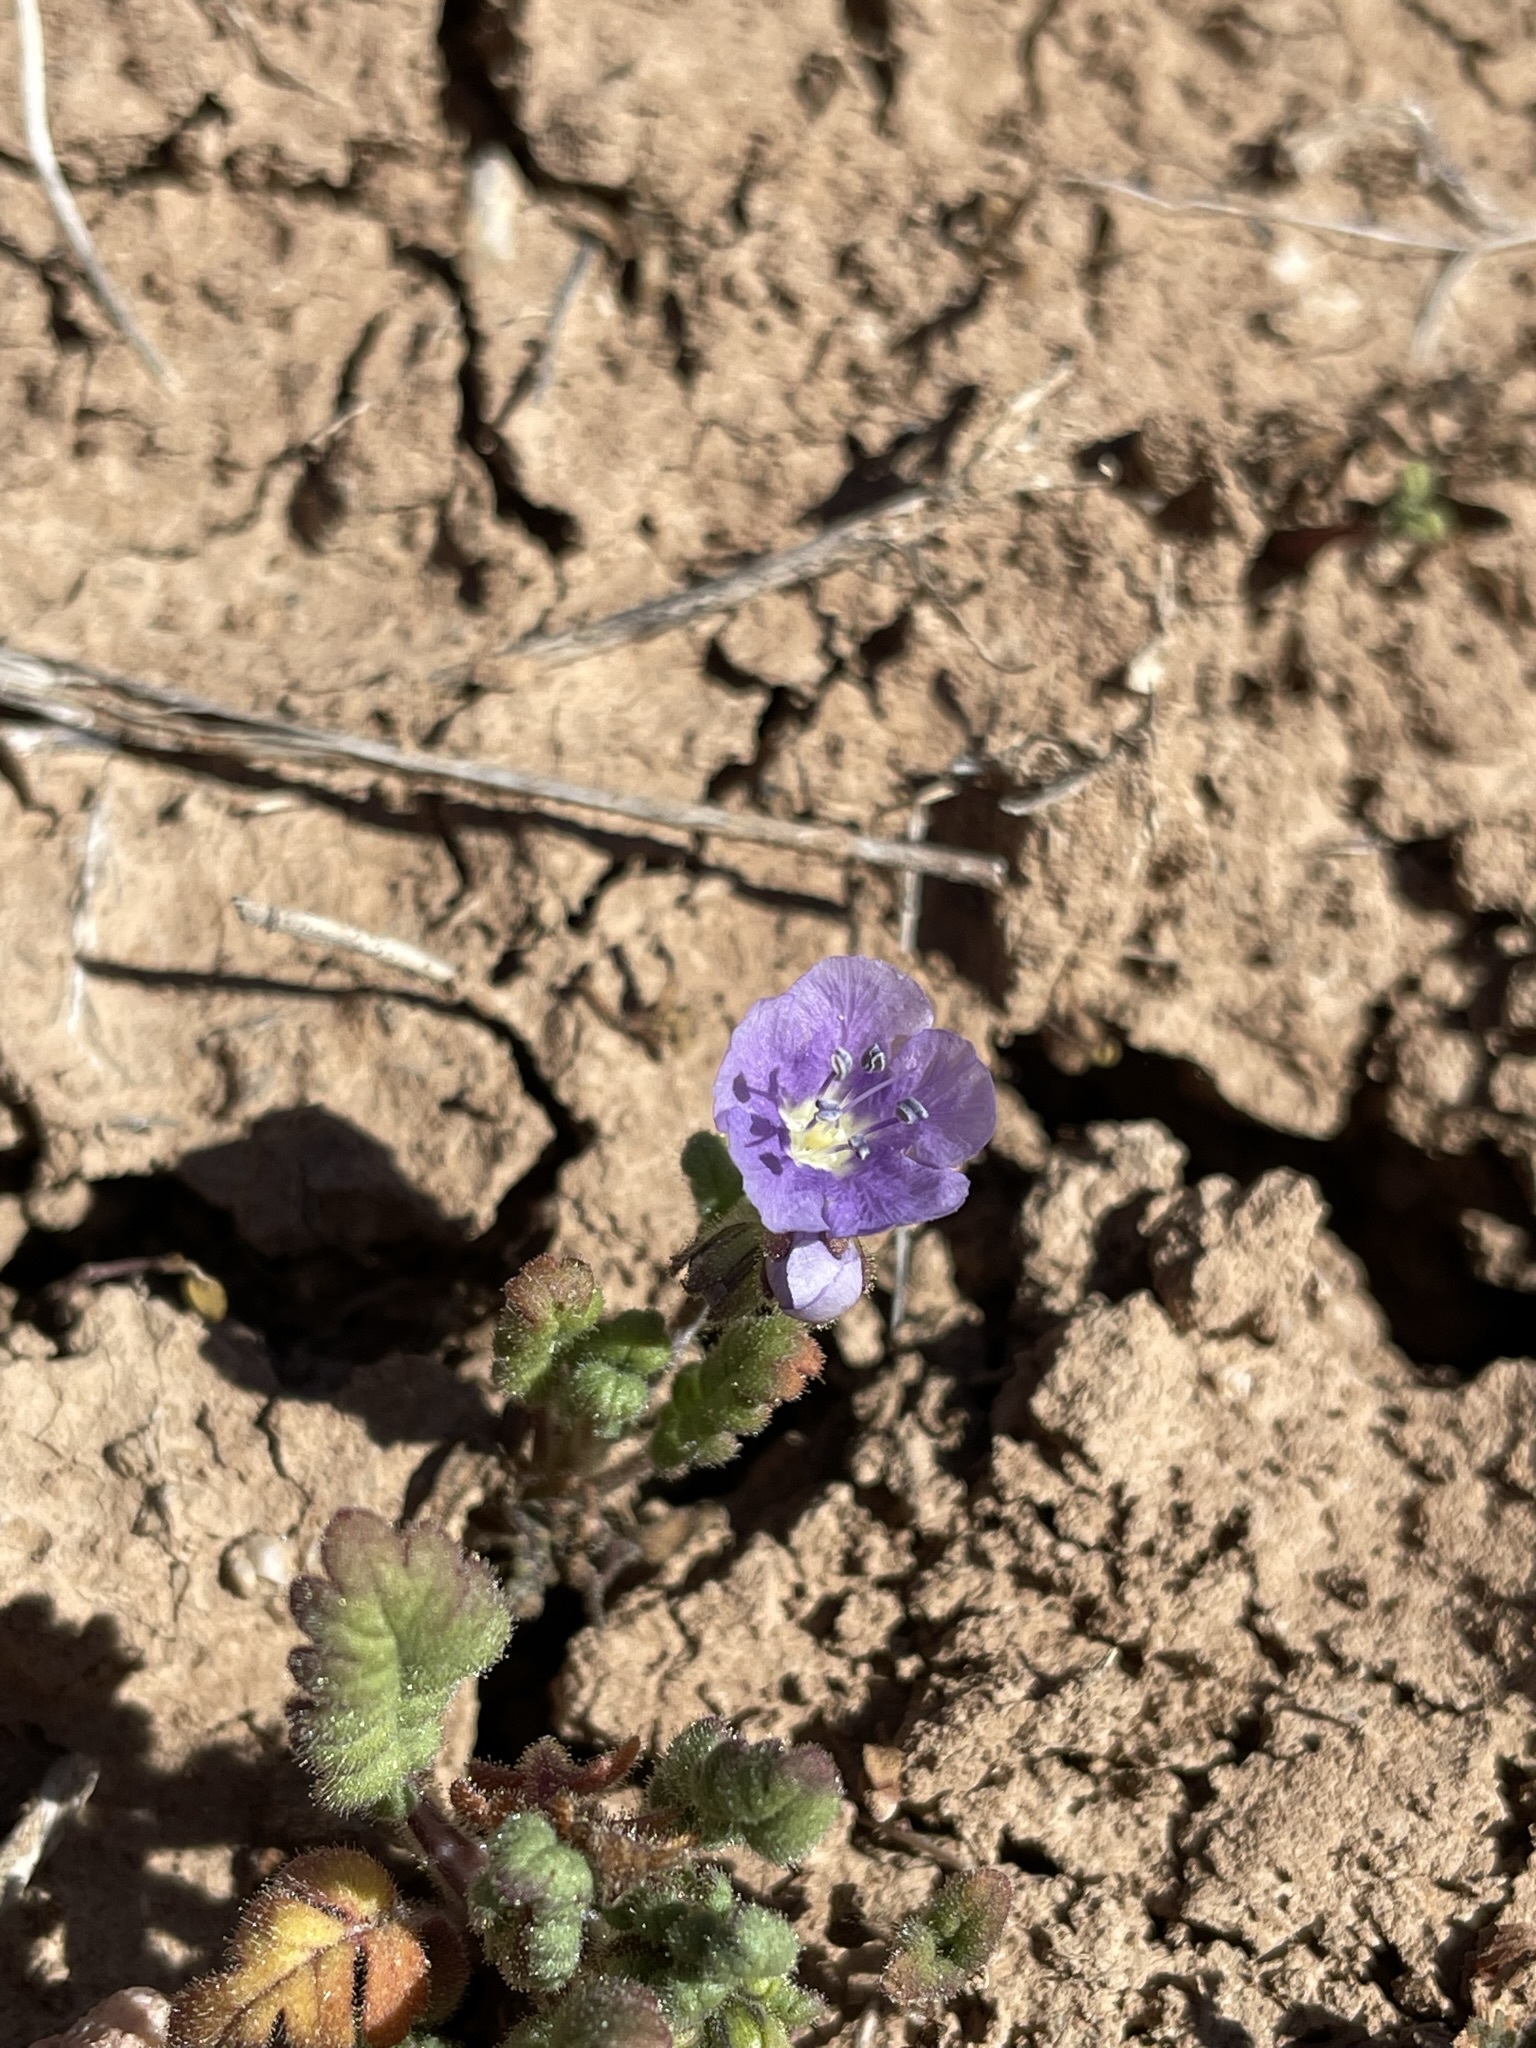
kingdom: Plantae
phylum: Tracheophyta
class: Magnoliopsida
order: Boraginales
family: Hydrophyllaceae
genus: Phacelia
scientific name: Phacelia ciliata
